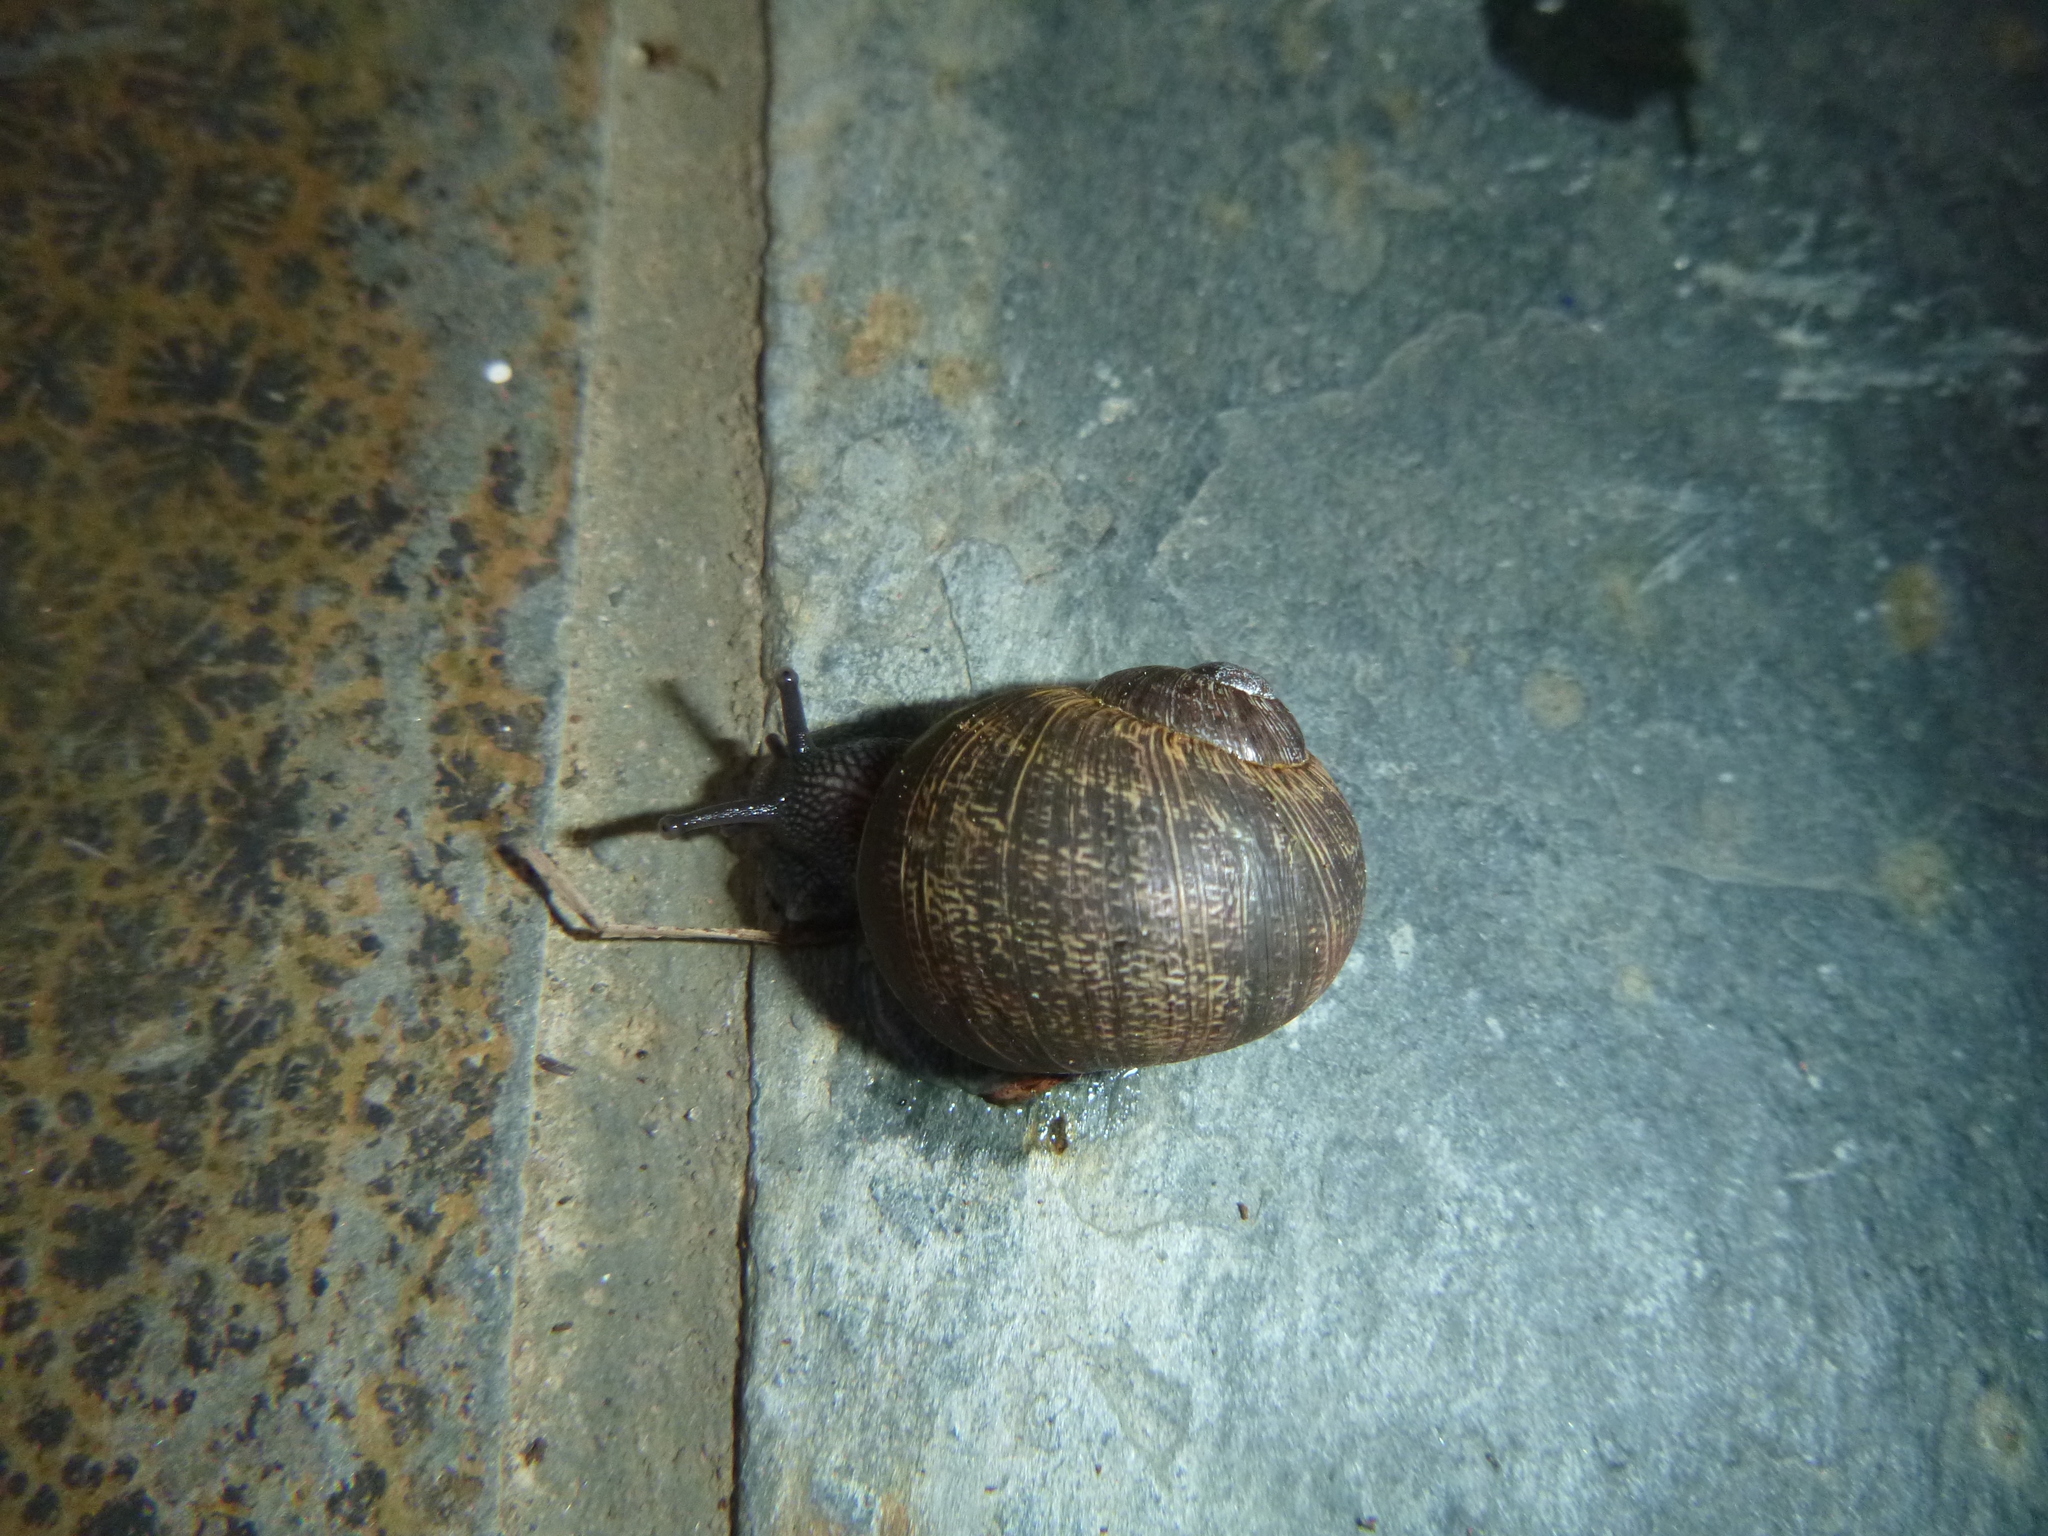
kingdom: Animalia
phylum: Mollusca
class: Gastropoda
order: Stylommatophora
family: Helicidae
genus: Cornu
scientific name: Cornu aspersum
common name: Brown garden snail
